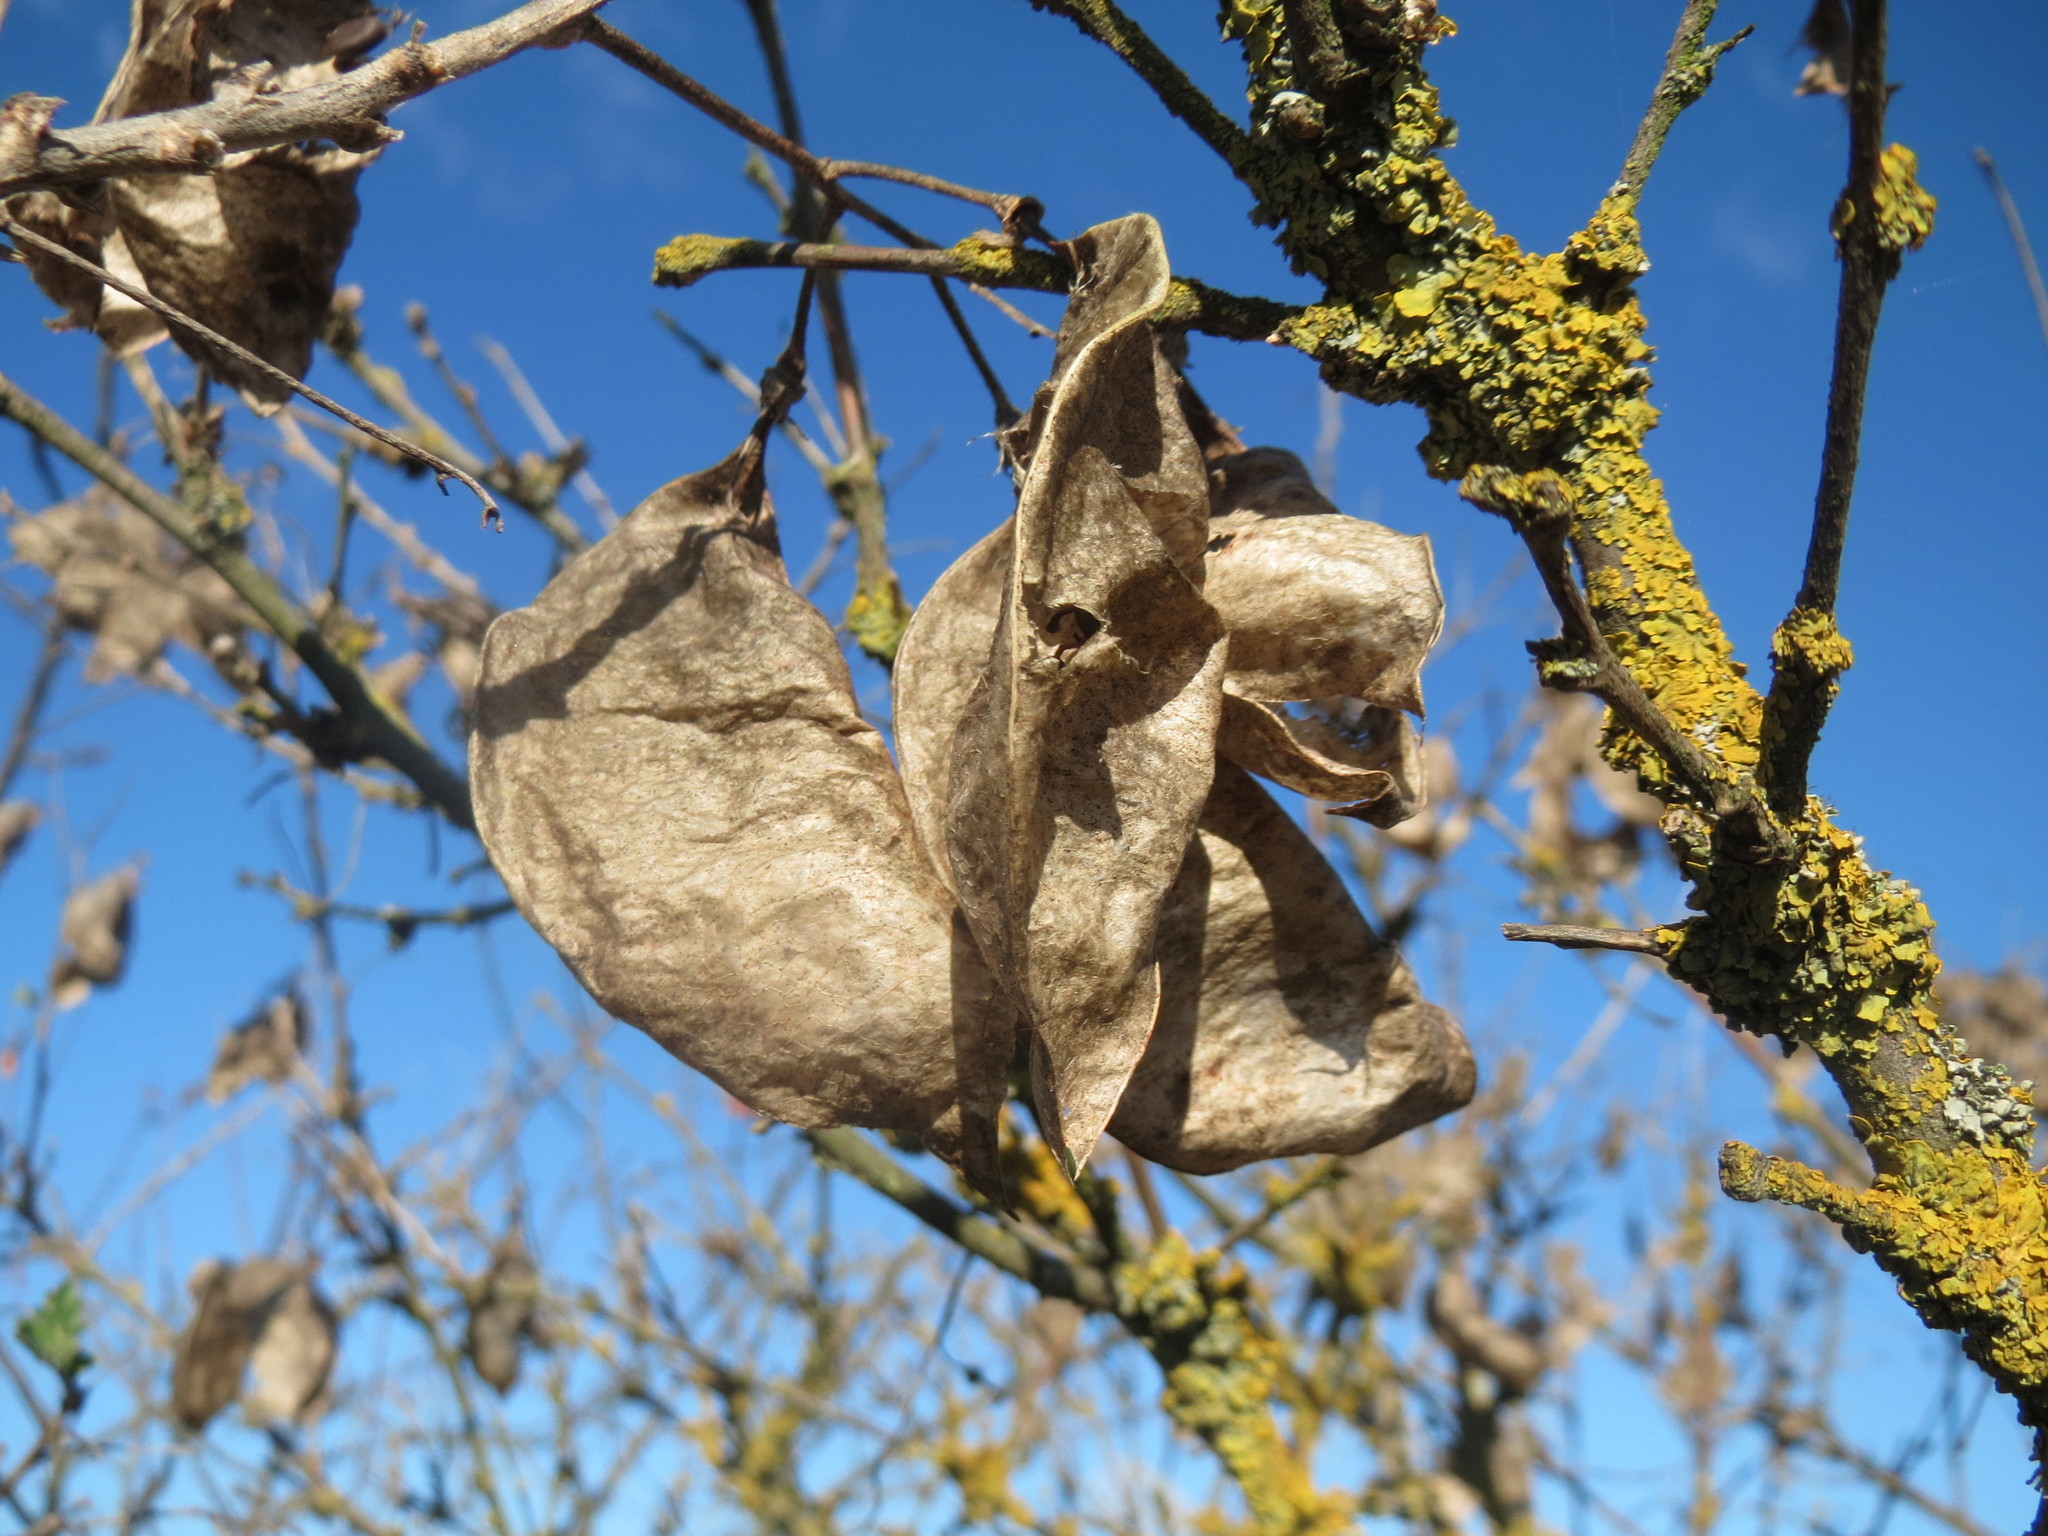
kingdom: Plantae
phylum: Tracheophyta
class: Magnoliopsida
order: Fabales
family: Fabaceae
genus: Colutea
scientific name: Colutea arborescens
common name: Bladder-senna
